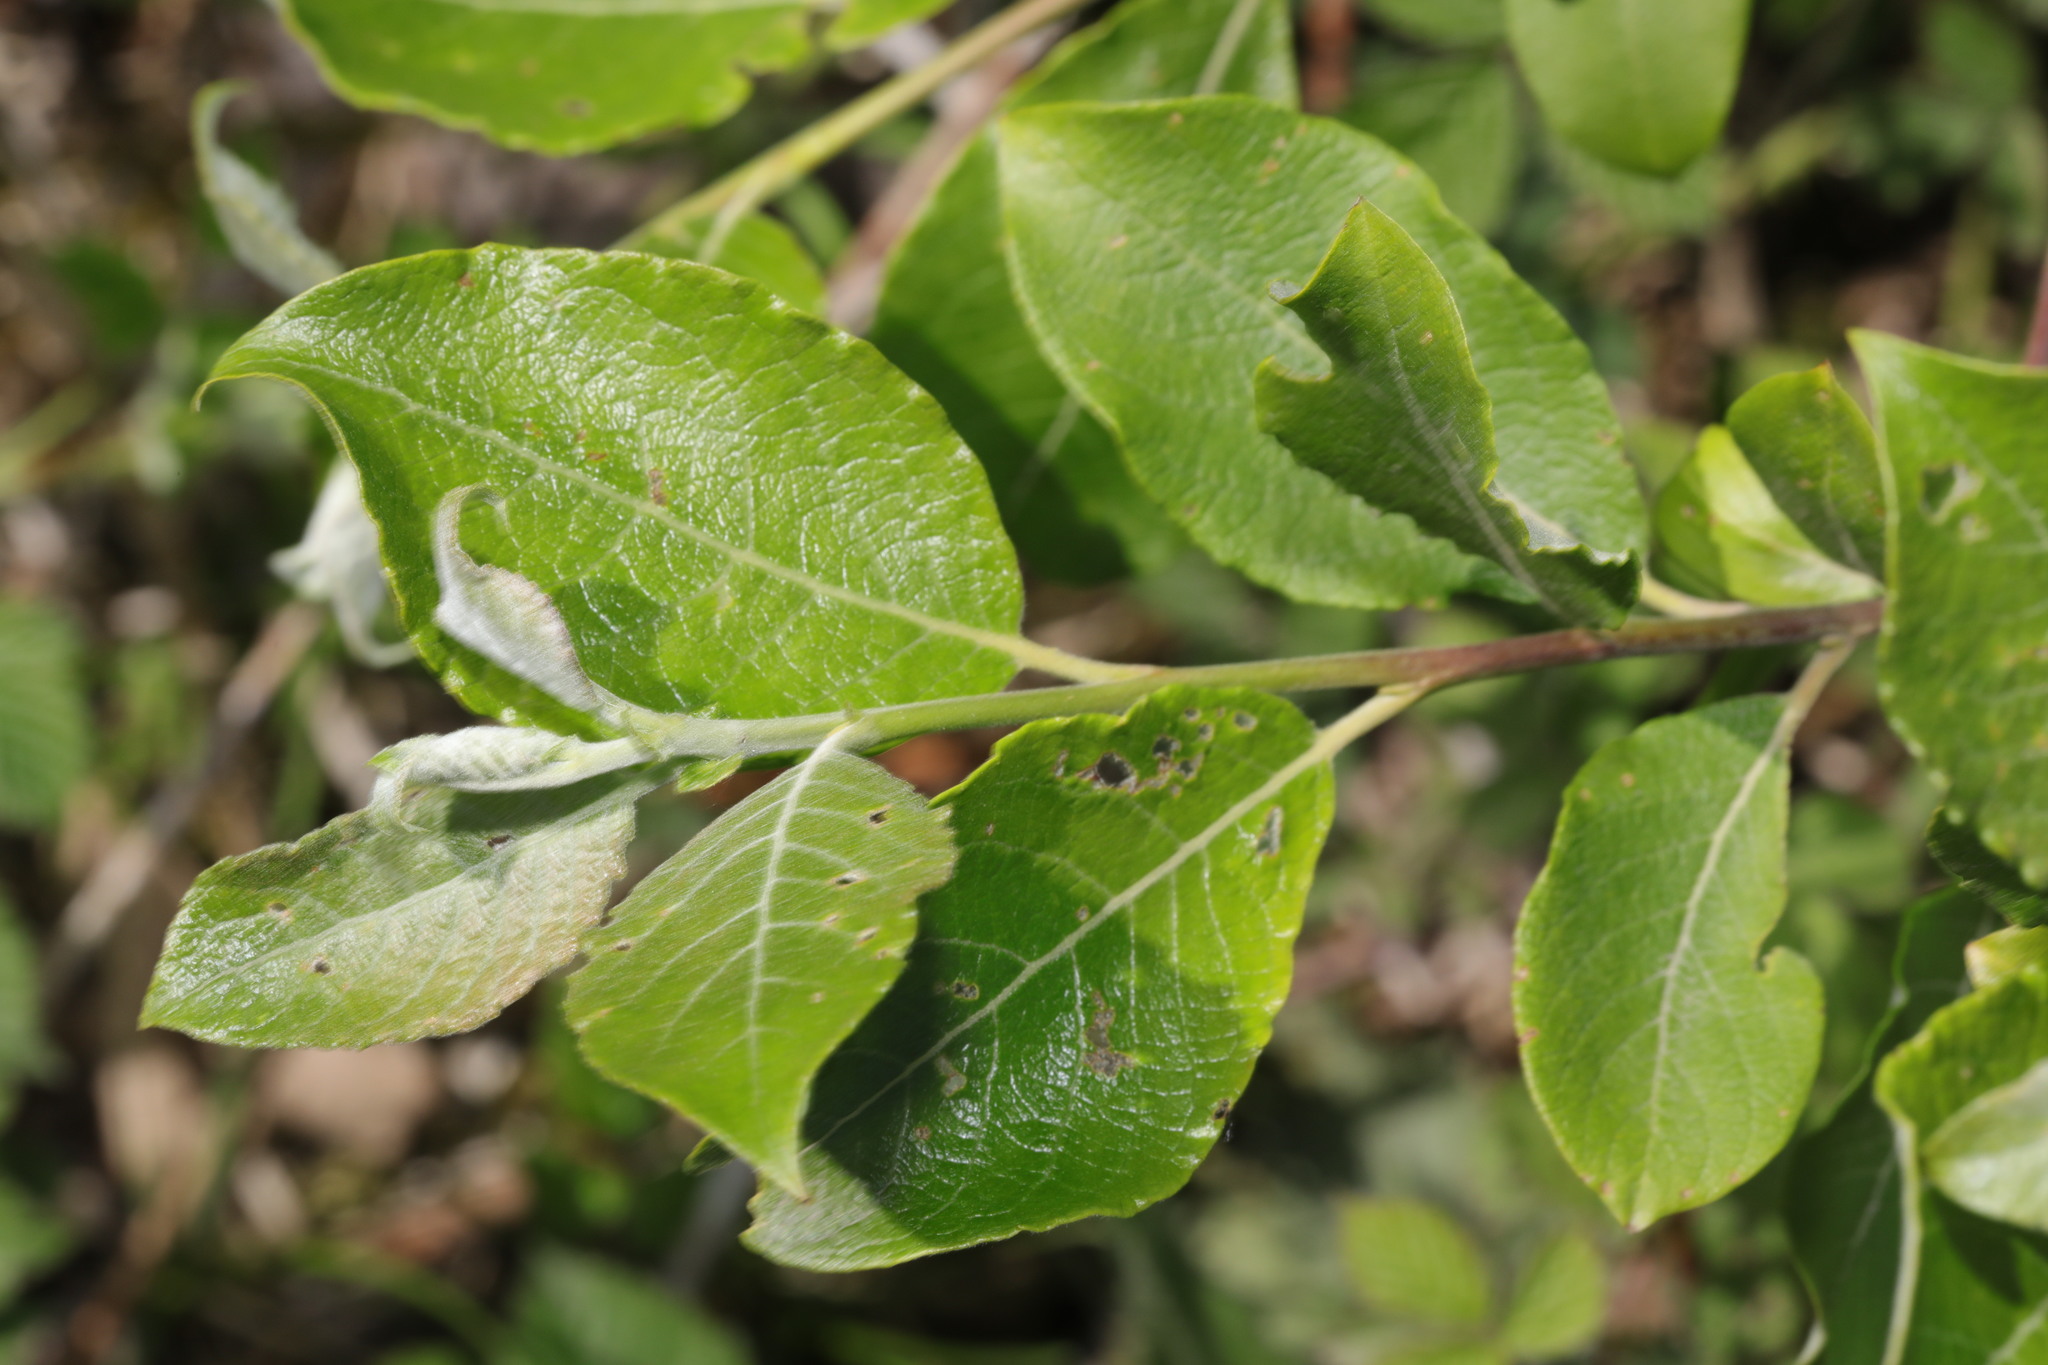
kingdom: Plantae
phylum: Tracheophyta
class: Magnoliopsida
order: Malpighiales
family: Salicaceae
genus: Salix
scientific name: Salix caprea
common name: Goat willow
